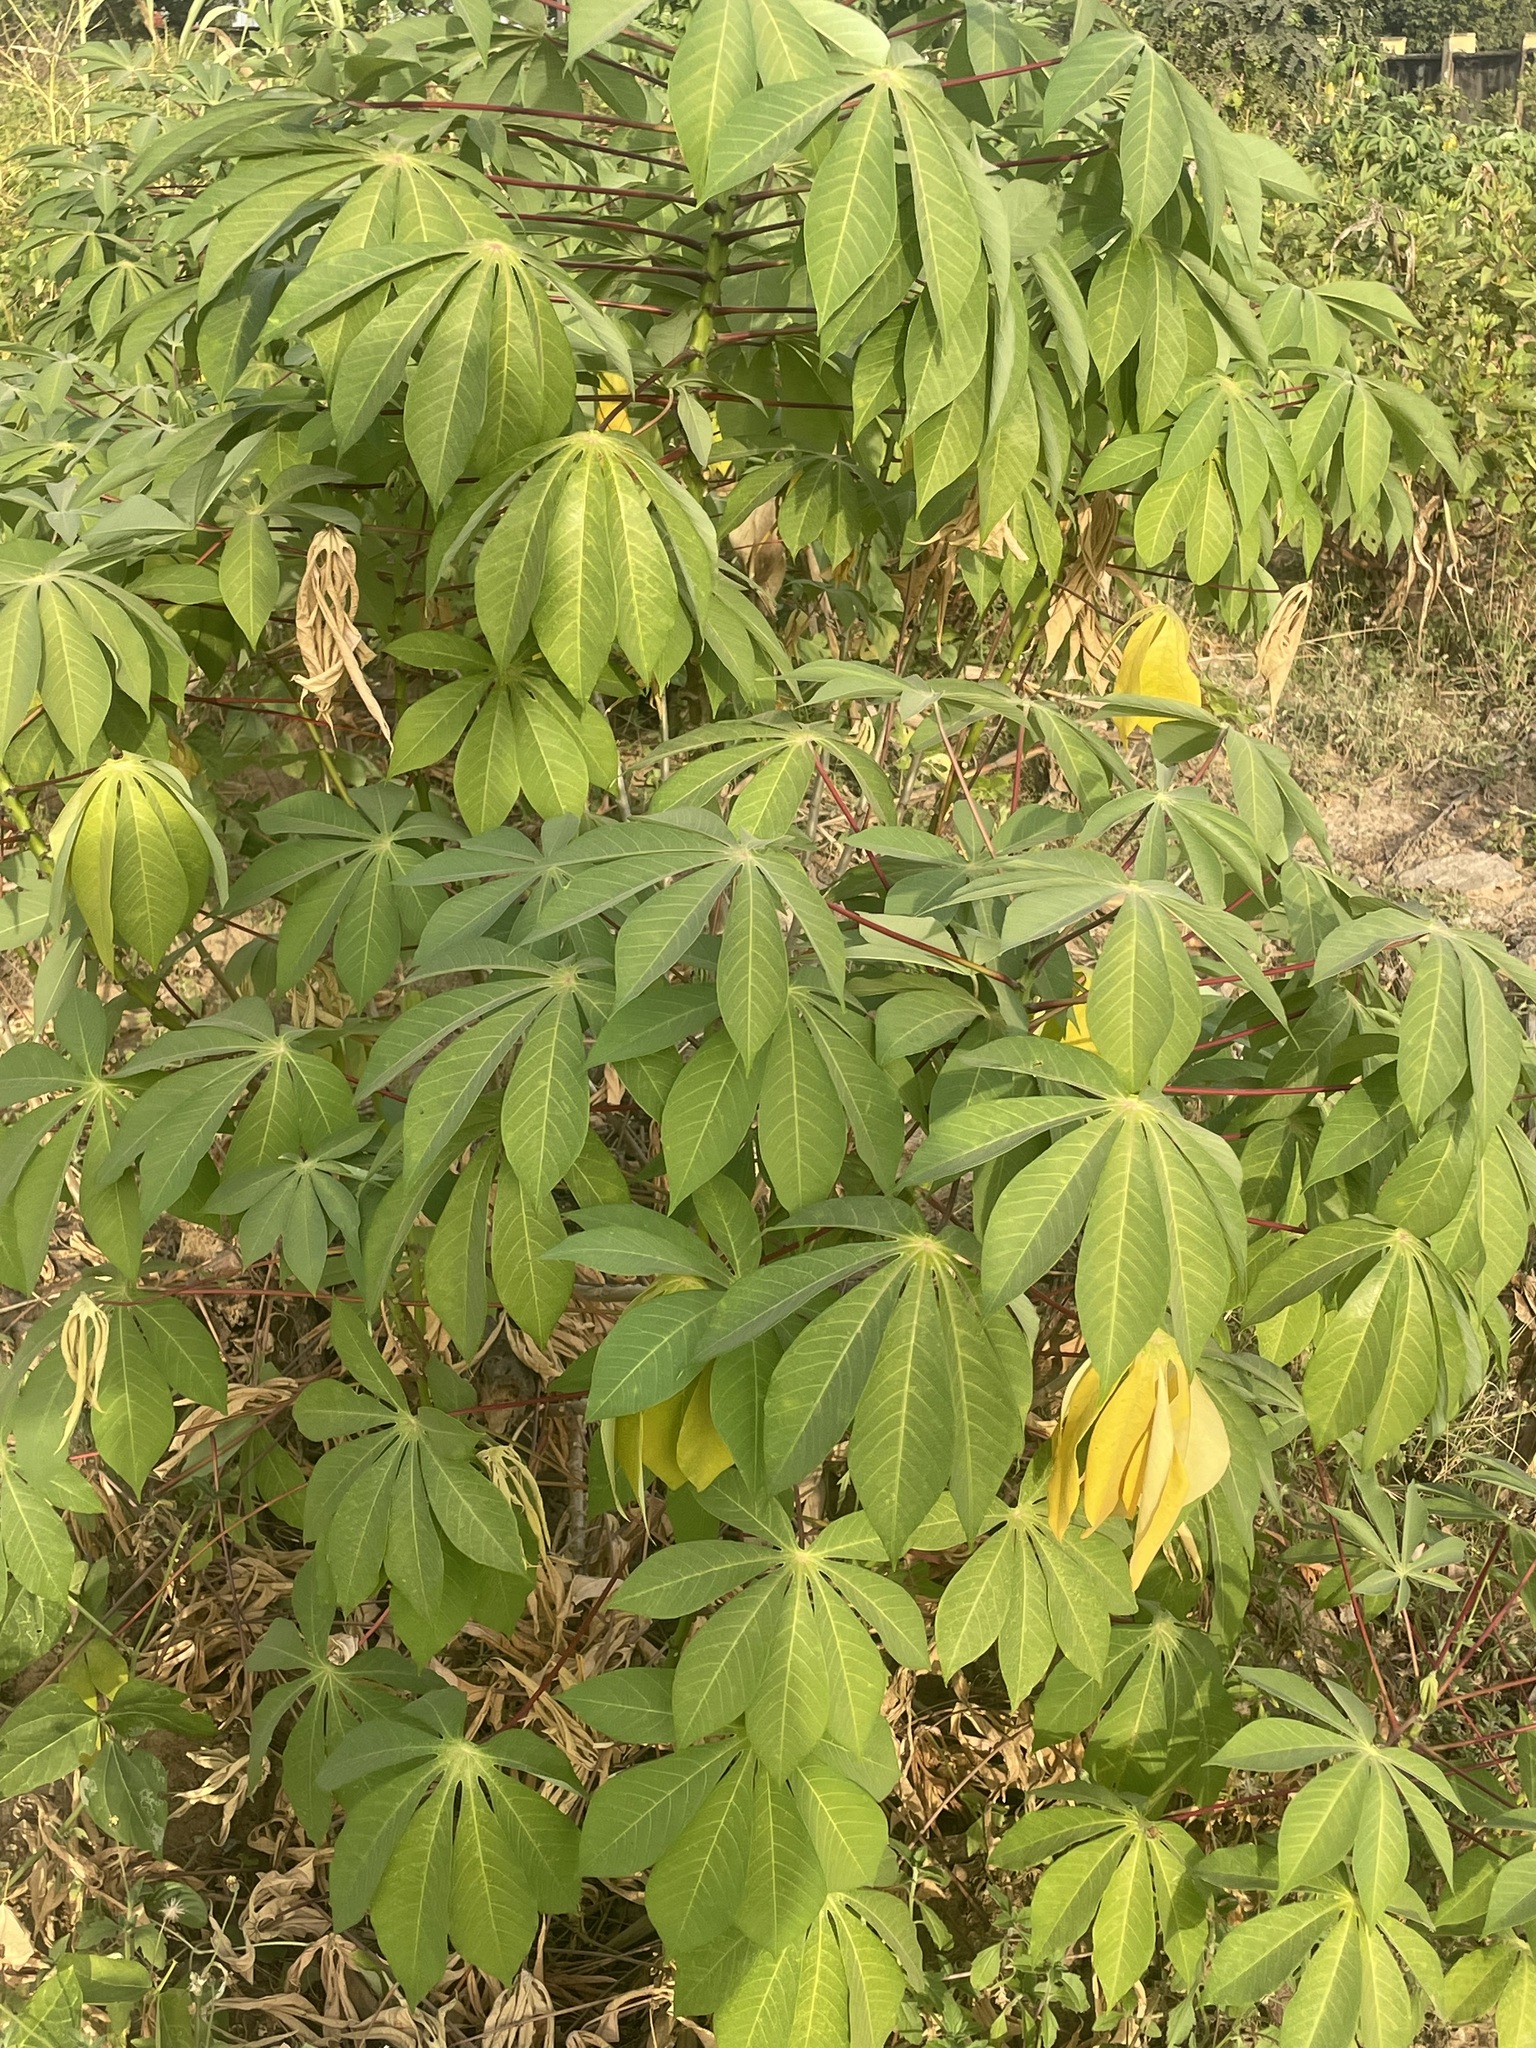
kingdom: Plantae
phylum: Tracheophyta
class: Magnoliopsida
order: Malpighiales
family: Euphorbiaceae
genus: Manihot
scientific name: Manihot esculenta
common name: Cassava
